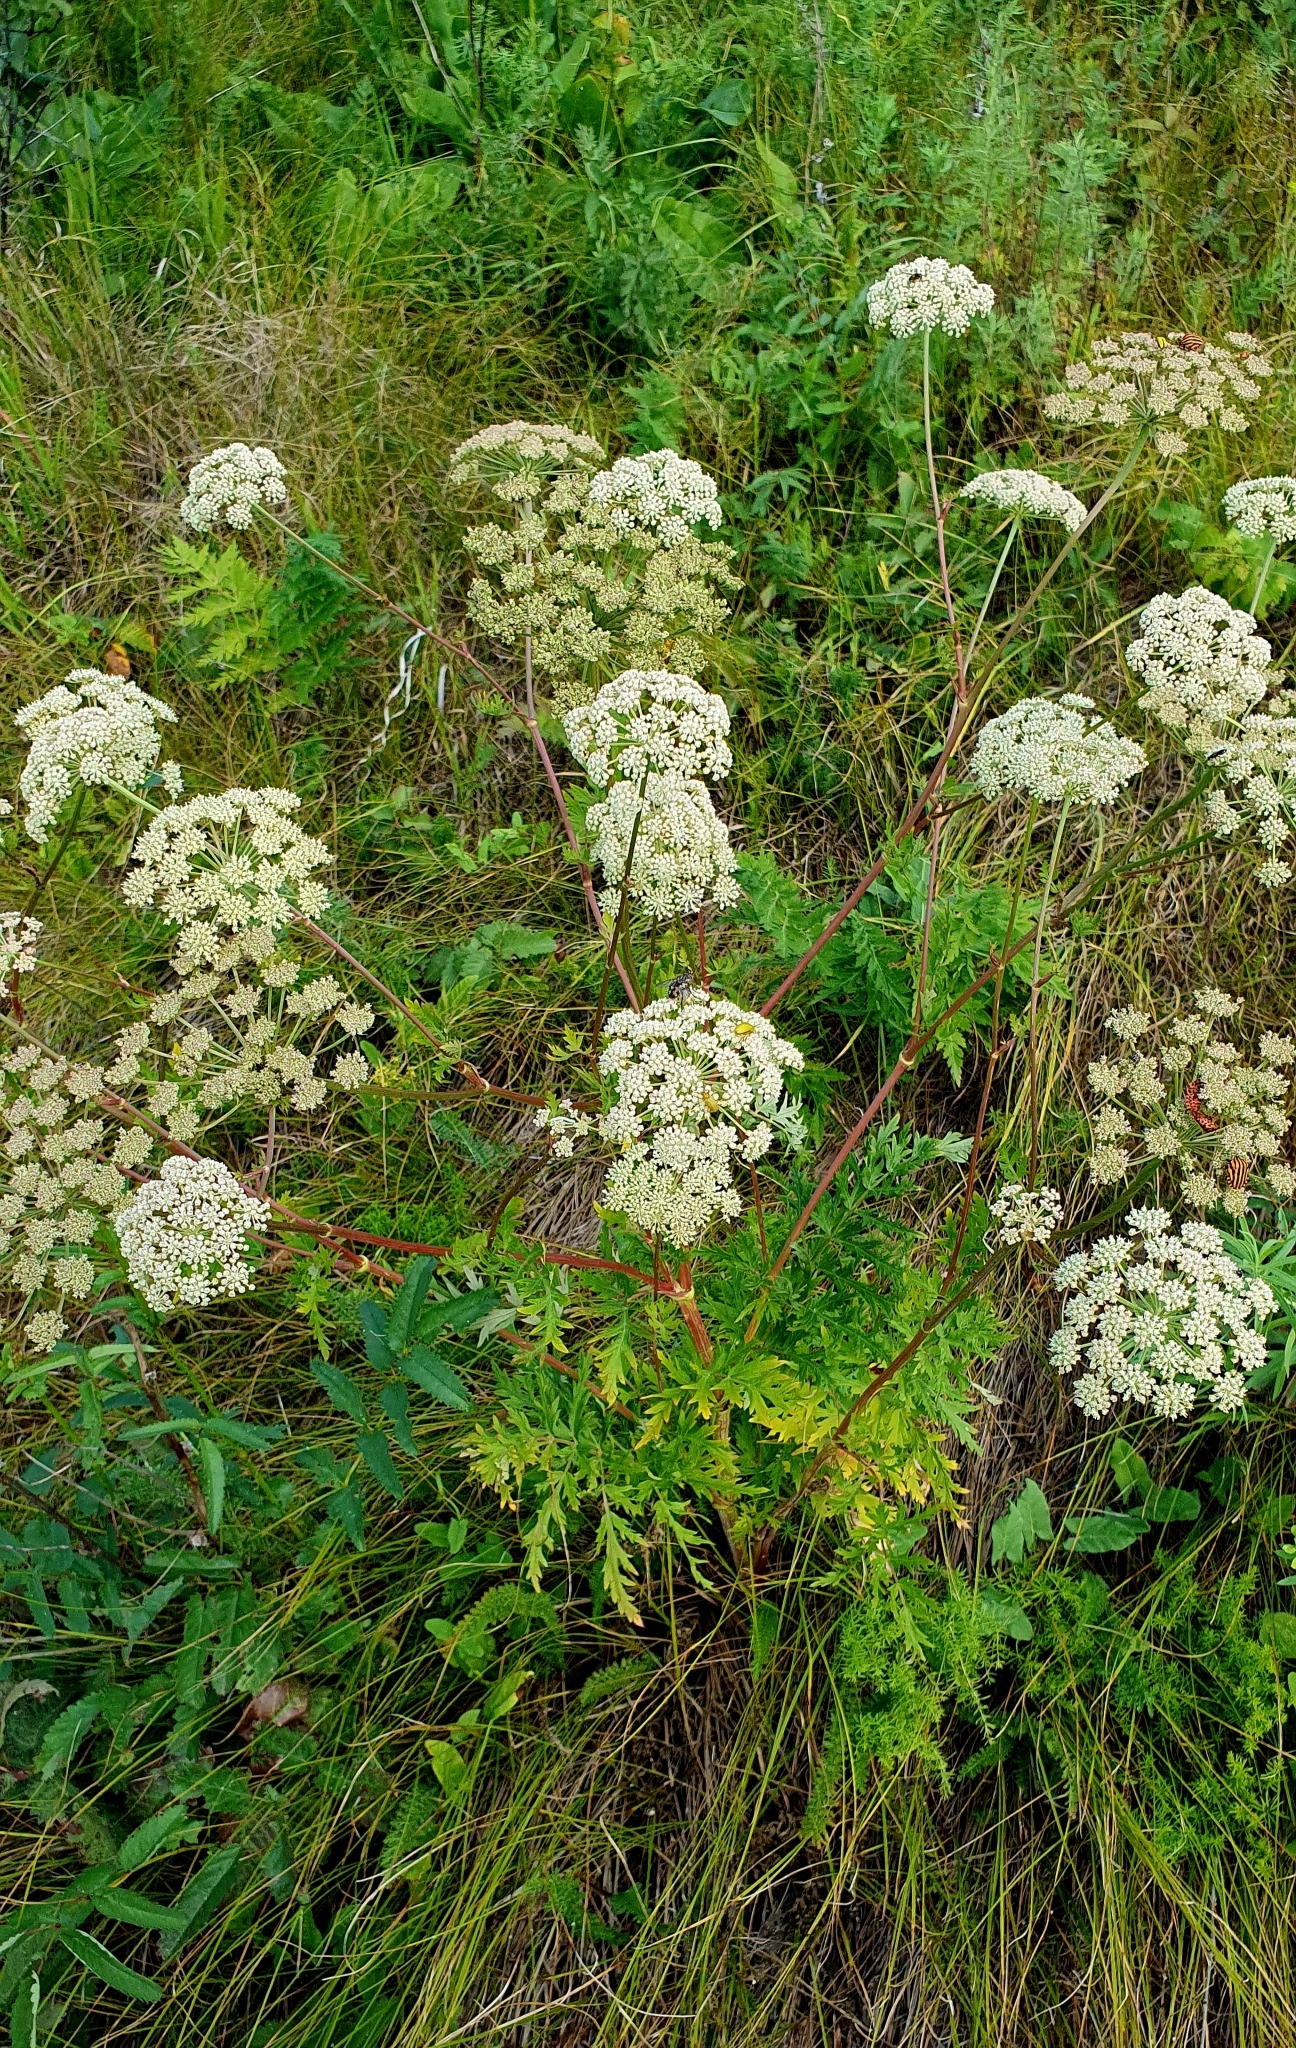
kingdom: Plantae
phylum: Tracheophyta
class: Magnoliopsida
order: Apiales
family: Apiaceae
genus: Seseli
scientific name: Seseli libanotis
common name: Mooncarrot
